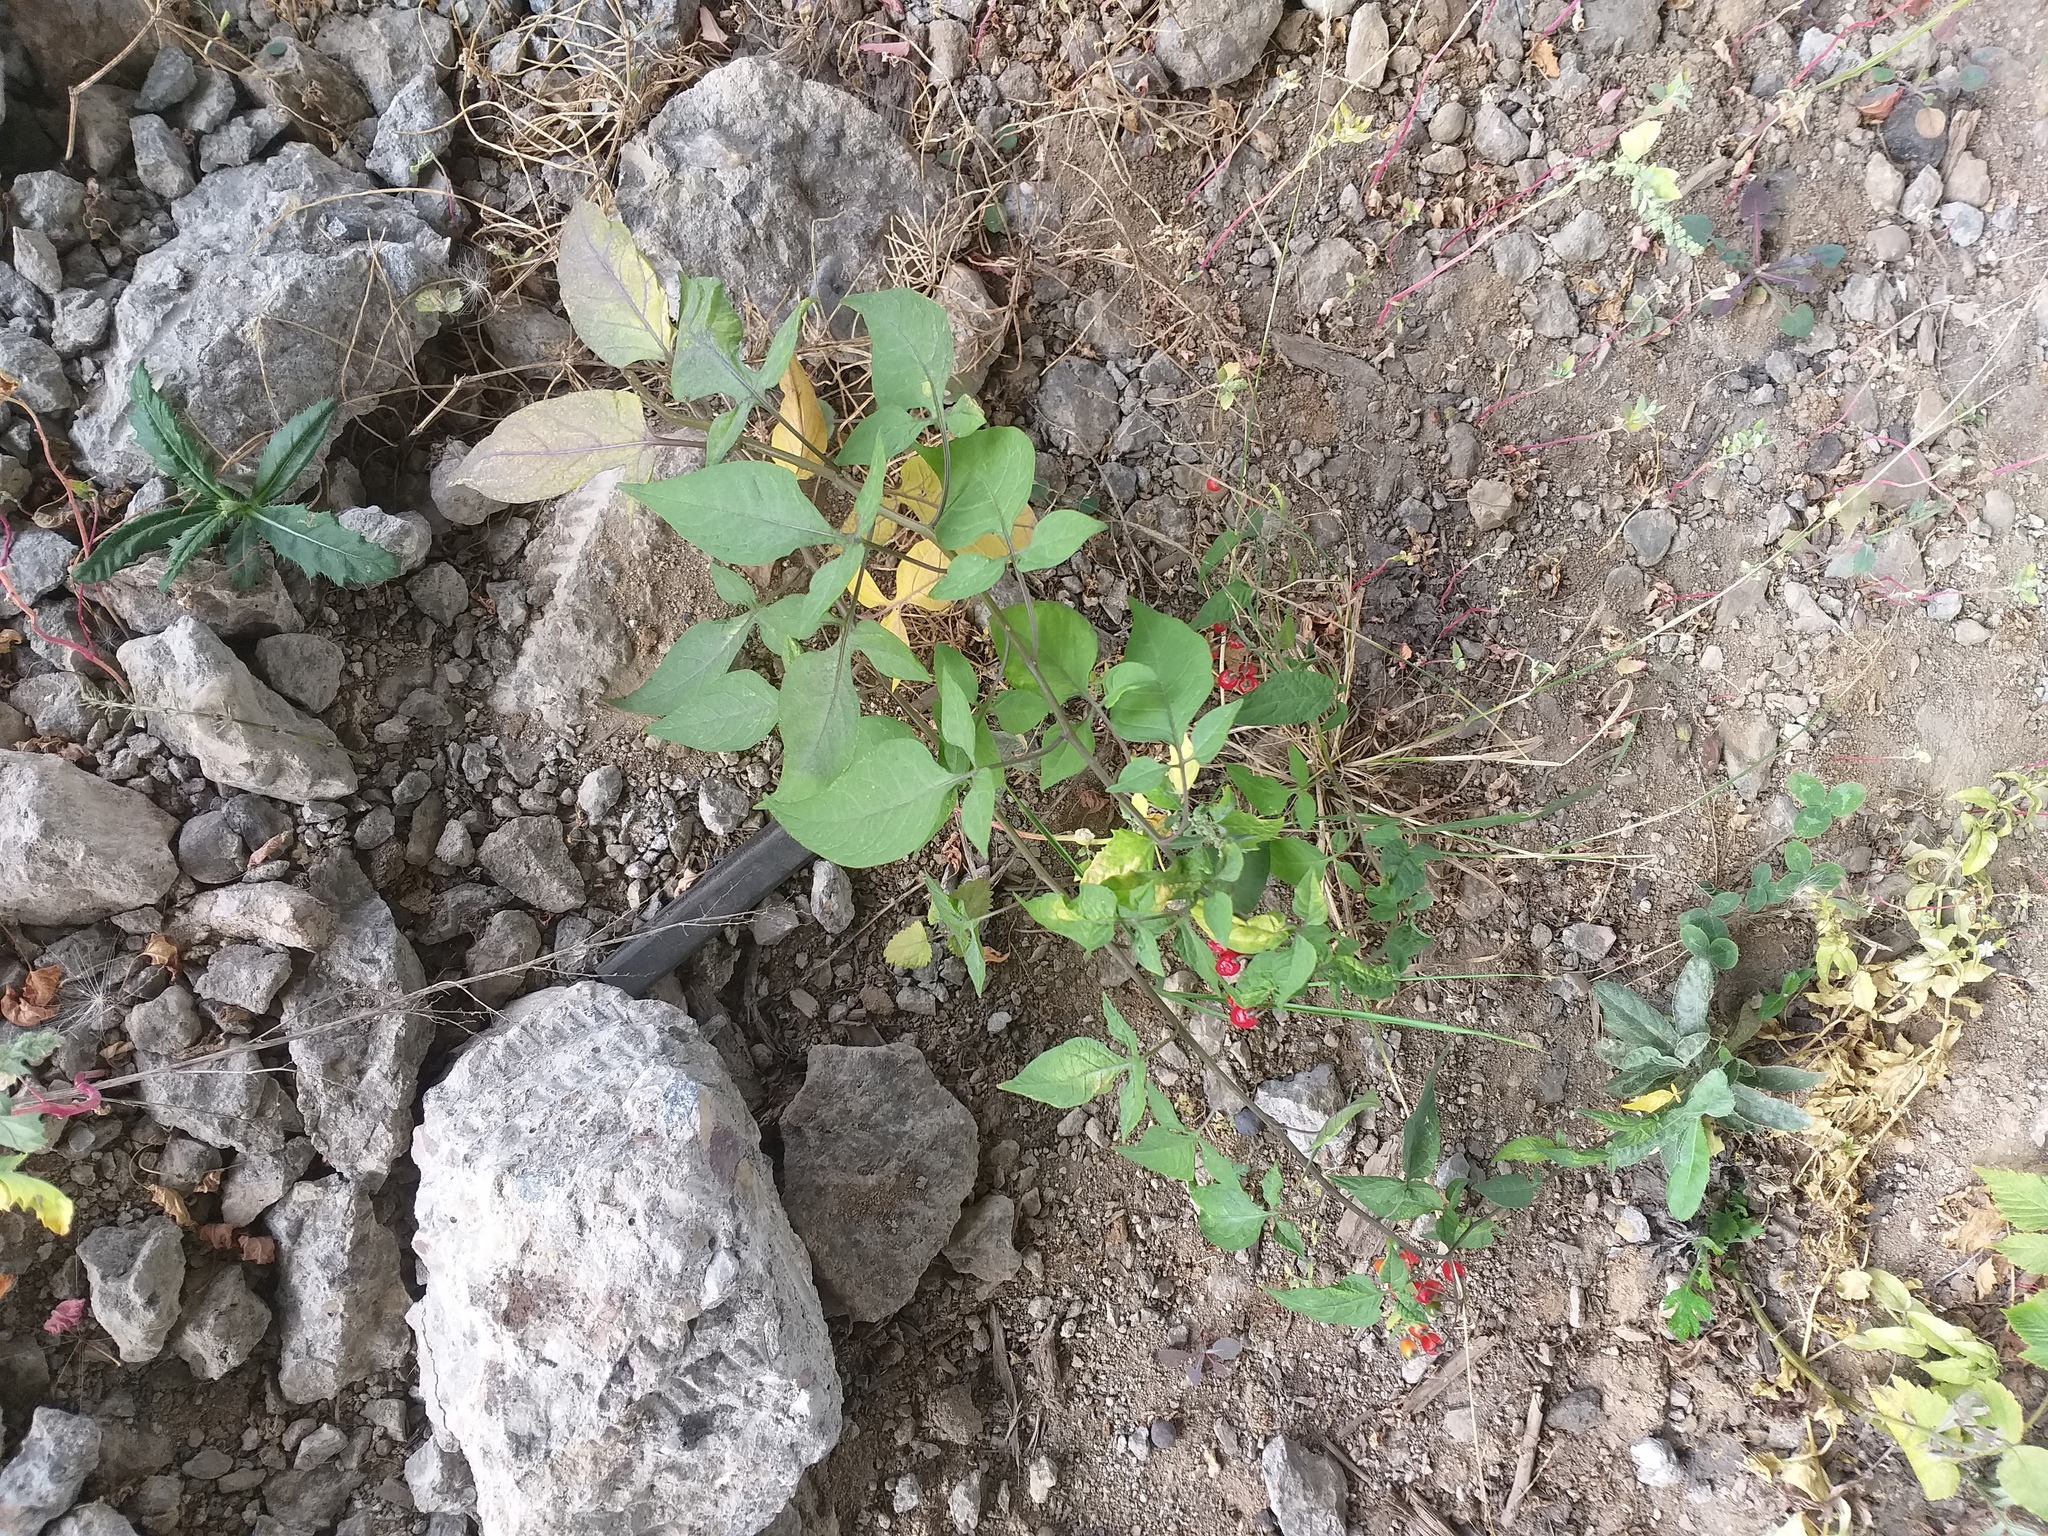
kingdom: Plantae
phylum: Tracheophyta
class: Magnoliopsida
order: Solanales
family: Solanaceae
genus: Solanum
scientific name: Solanum dulcamara
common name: Climbing nightshade
